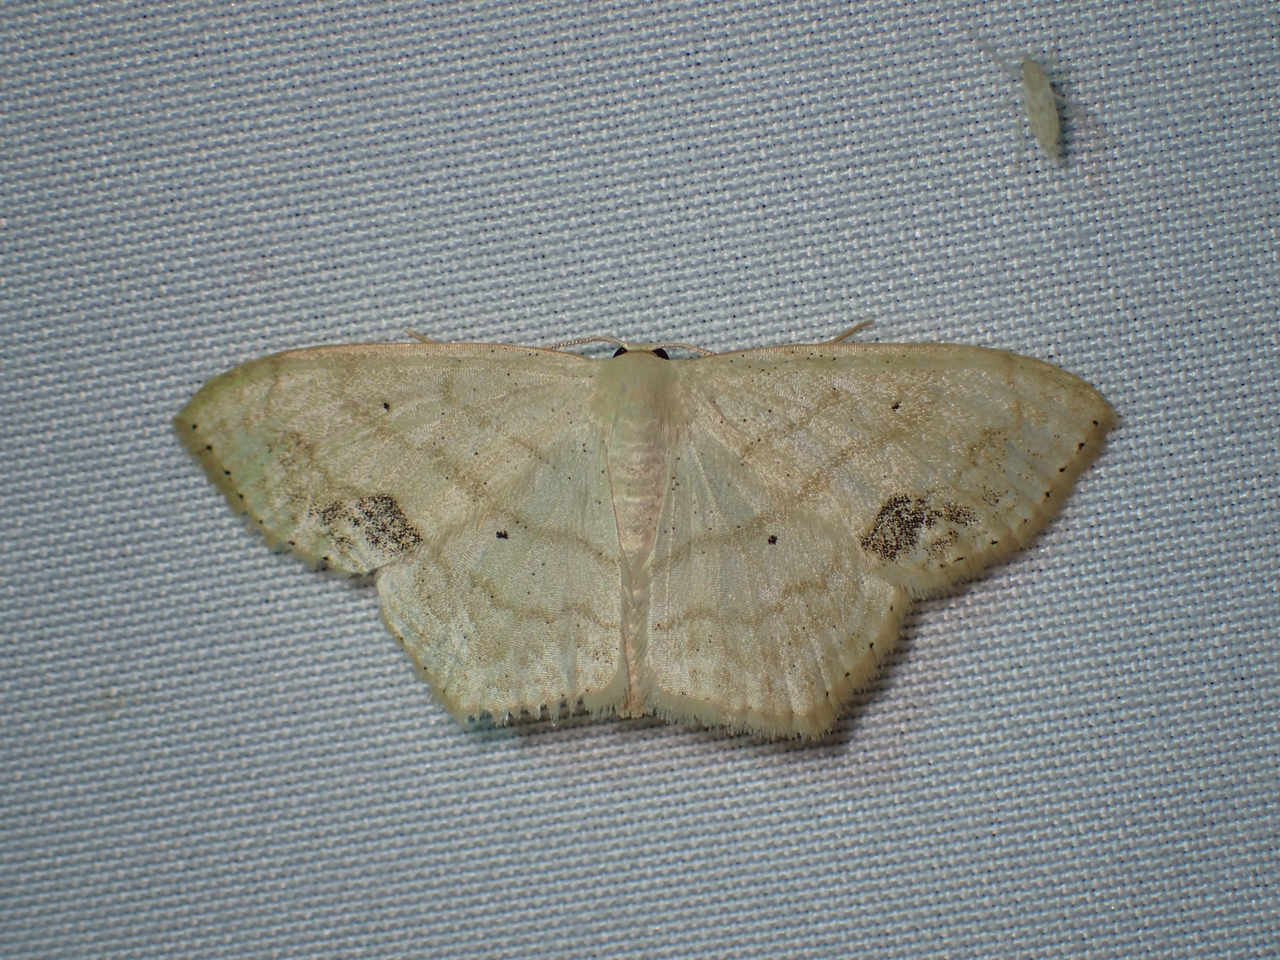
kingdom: Animalia
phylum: Arthropoda
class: Insecta
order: Lepidoptera
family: Geometridae
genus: Scopula
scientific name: Scopula limboundata
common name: Large lace border
